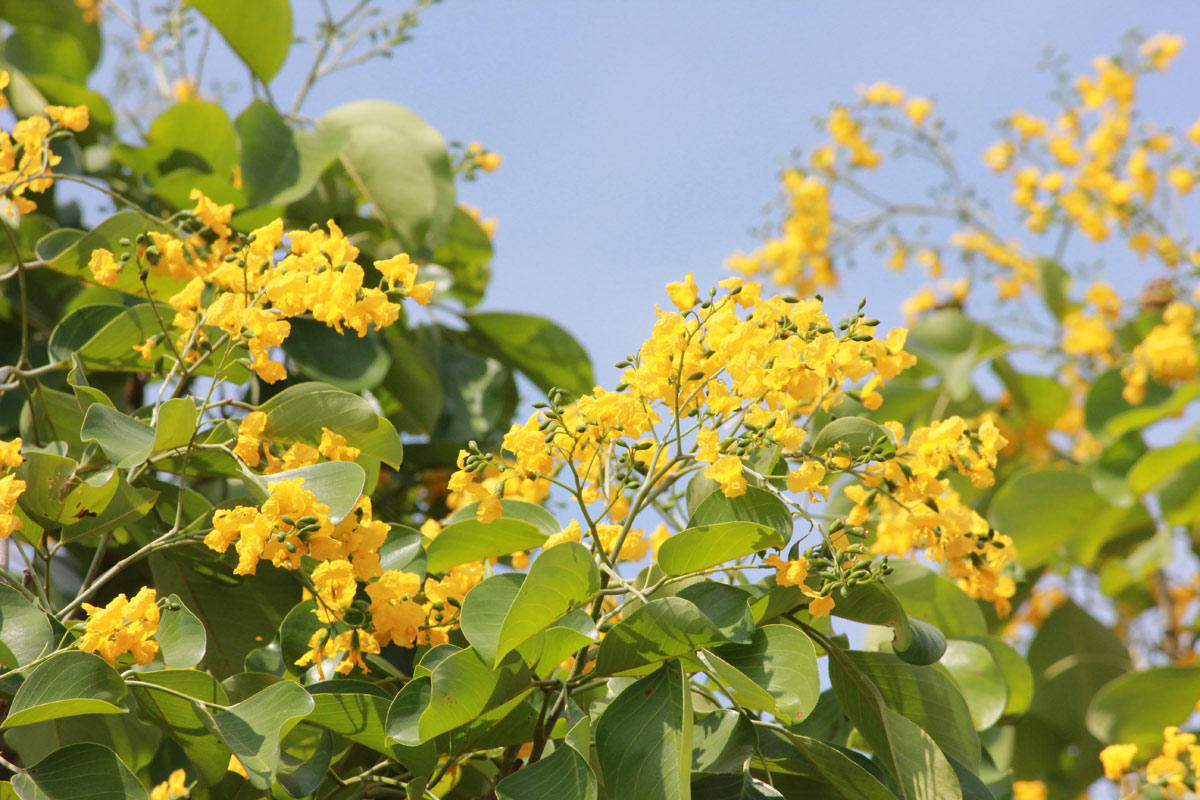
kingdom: Plantae
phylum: Tracheophyta
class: Magnoliopsida
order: Fabales
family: Fabaceae
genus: Pterocarpus
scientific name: Pterocarpus rotundifolius
